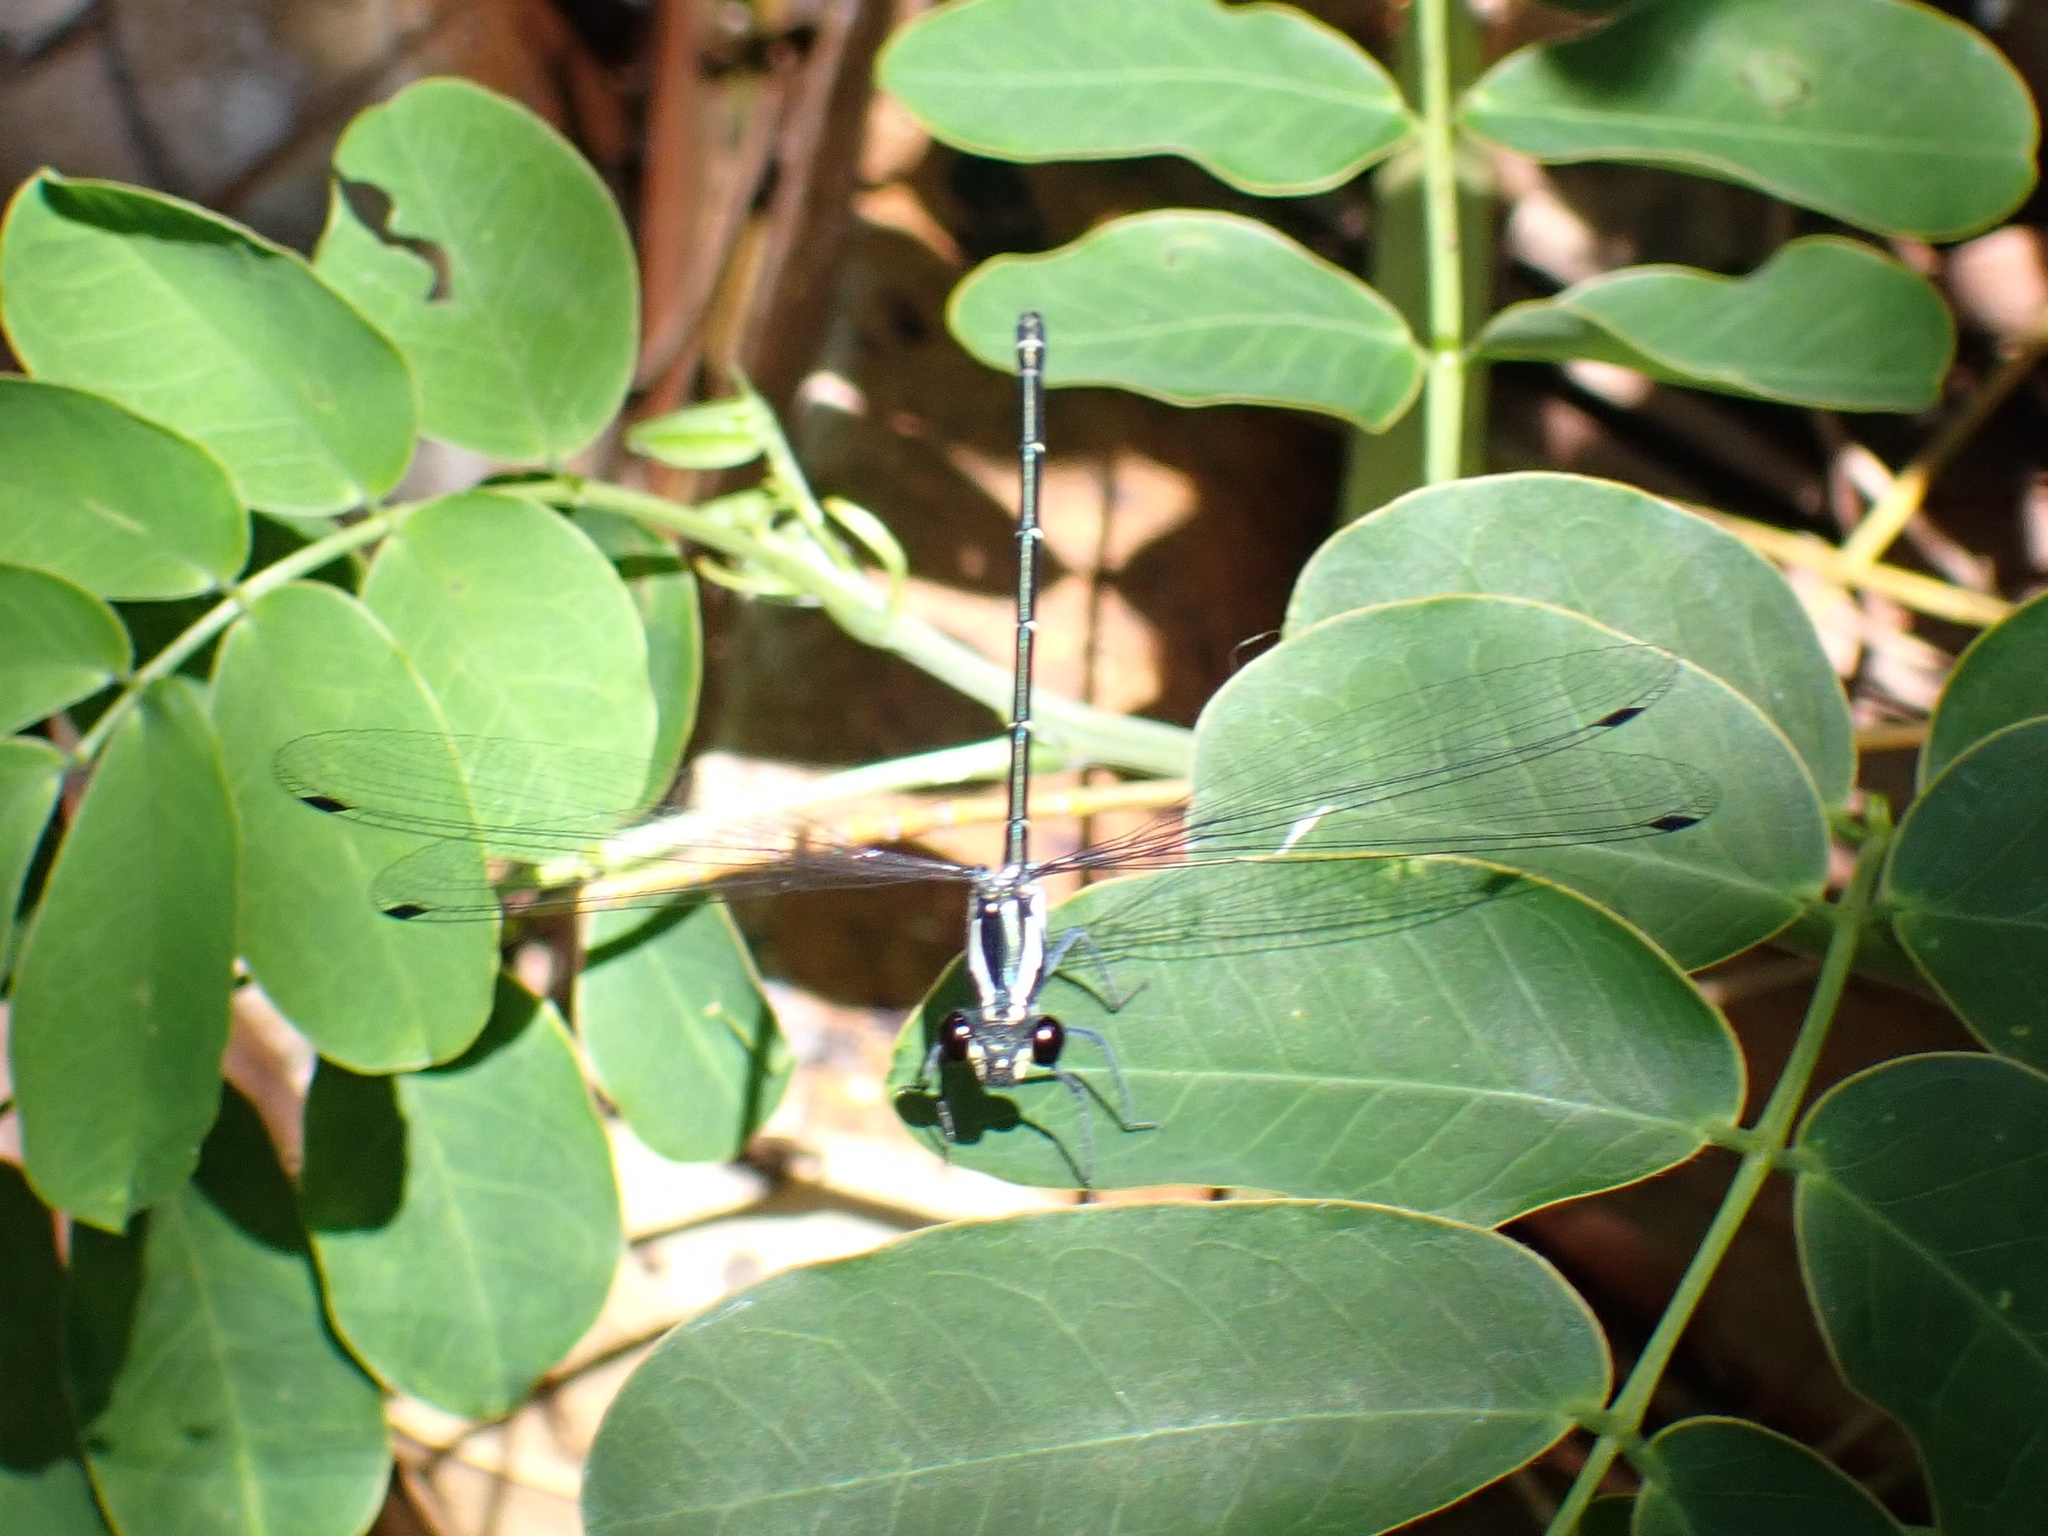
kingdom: Animalia
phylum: Arthropoda
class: Insecta
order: Odonata
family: Argiolestidae
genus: Austroargiolestes
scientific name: Austroargiolestes icteromelas
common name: Common flatwing
